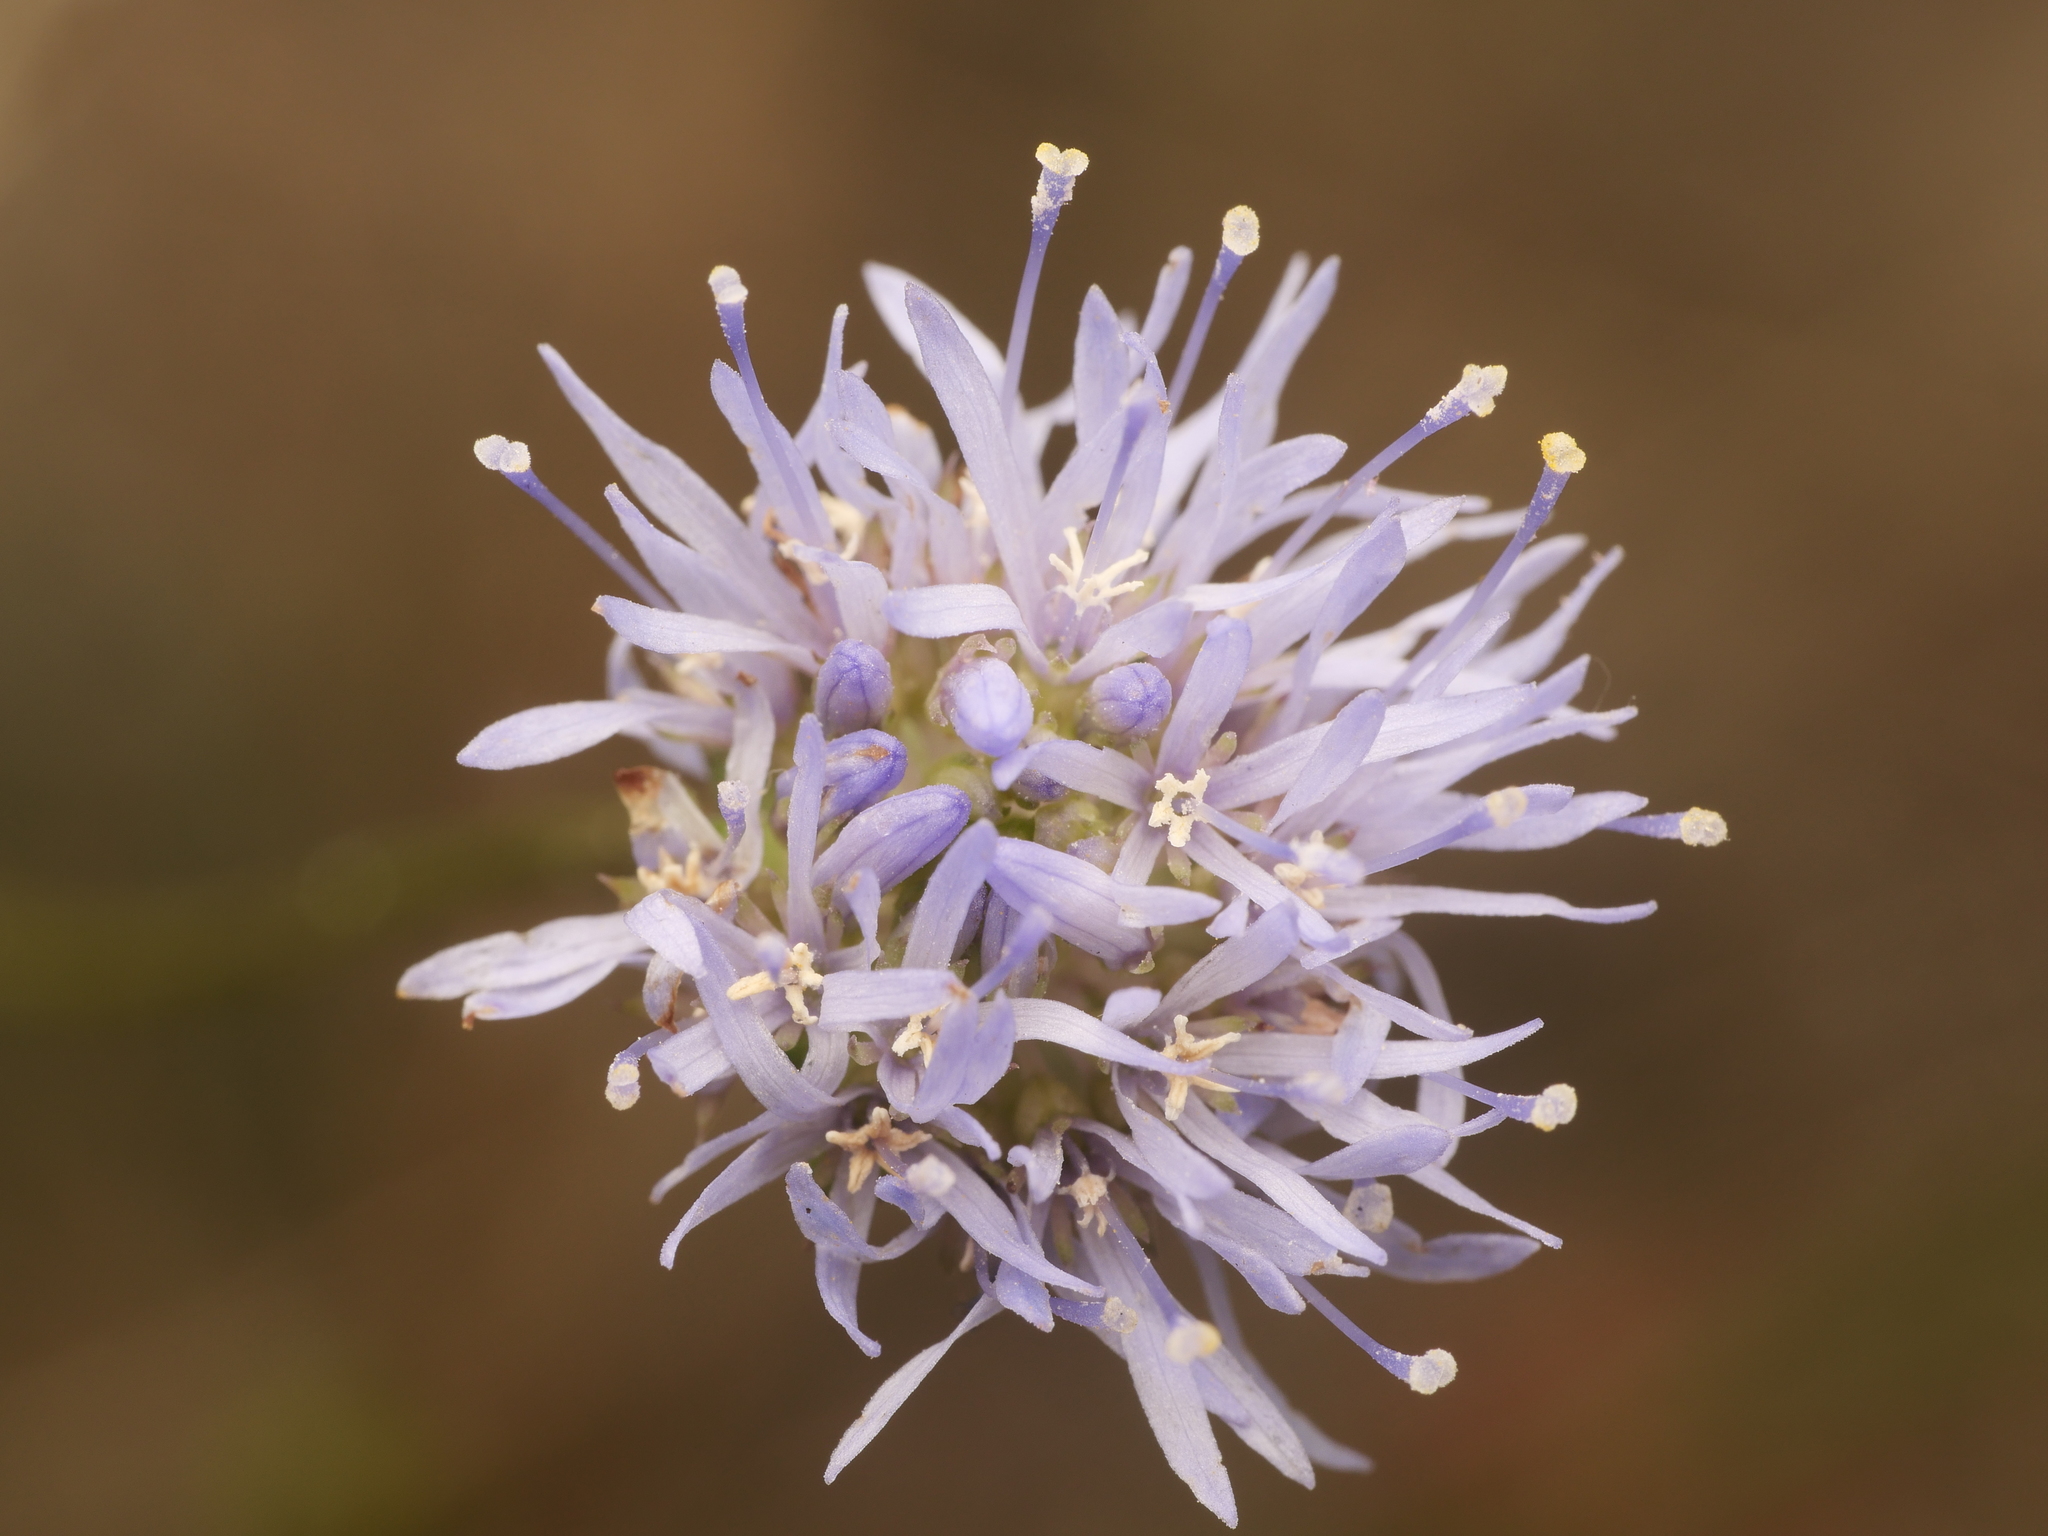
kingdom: Plantae
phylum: Tracheophyta
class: Magnoliopsida
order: Asterales
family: Campanulaceae
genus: Jasione
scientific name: Jasione montana
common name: Sheep's-bit
